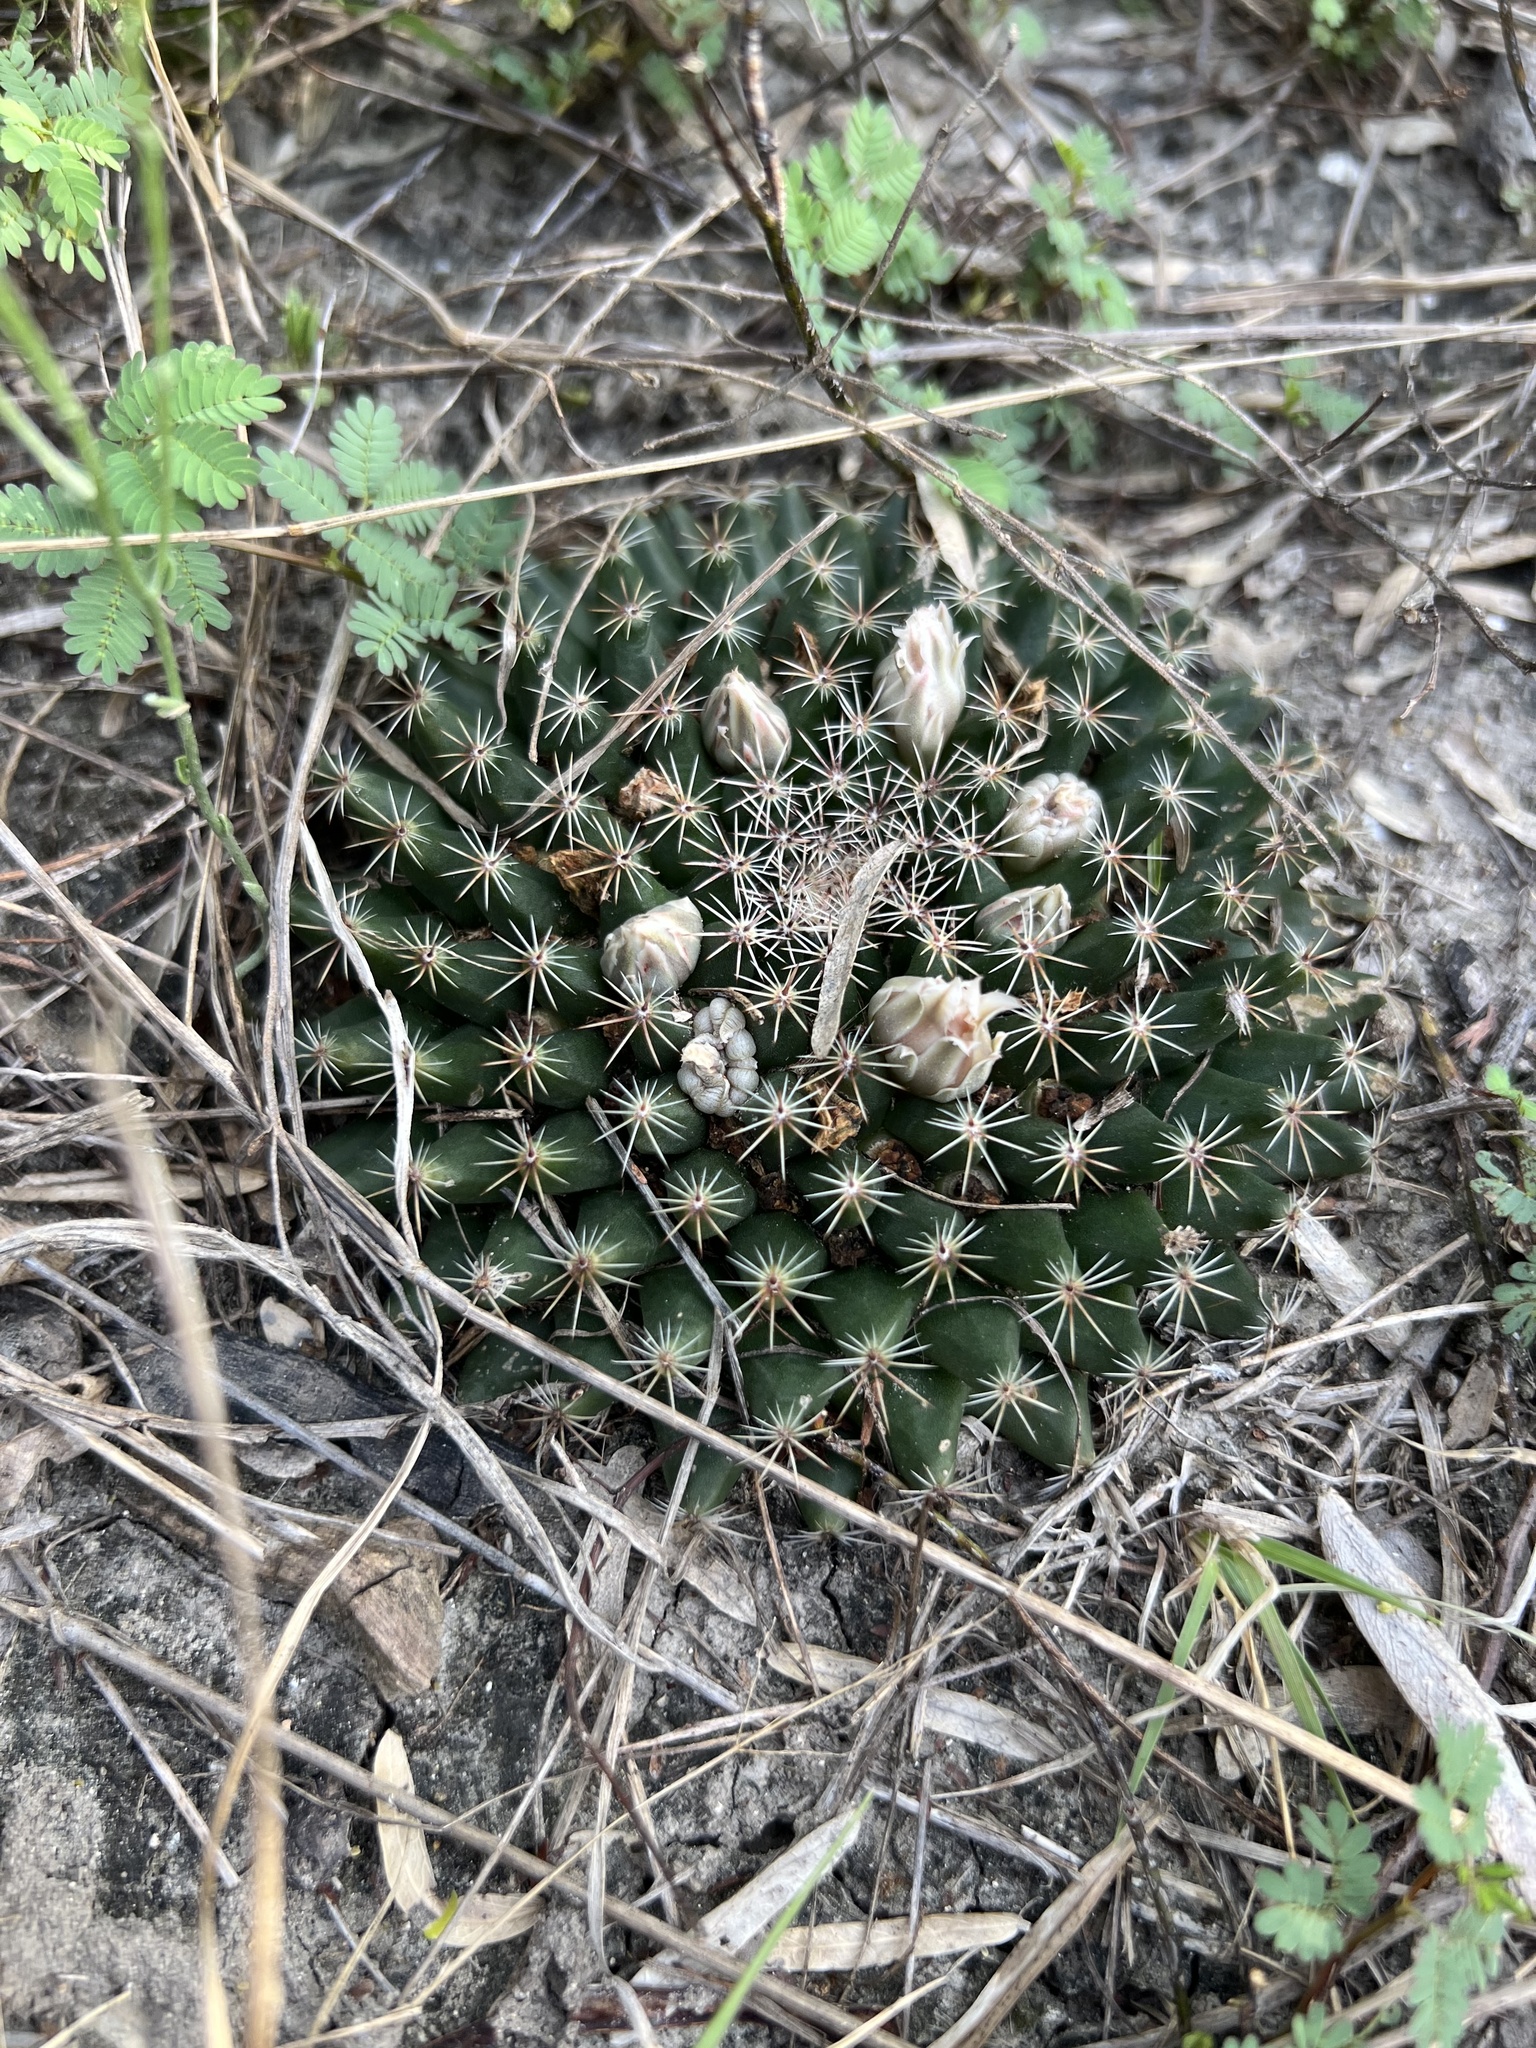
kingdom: Plantae
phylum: Tracheophyta
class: Magnoliopsida
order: Caryophyllales
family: Cactaceae
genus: Mammillaria
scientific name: Mammillaria heyderi
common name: Little nipple cactus
